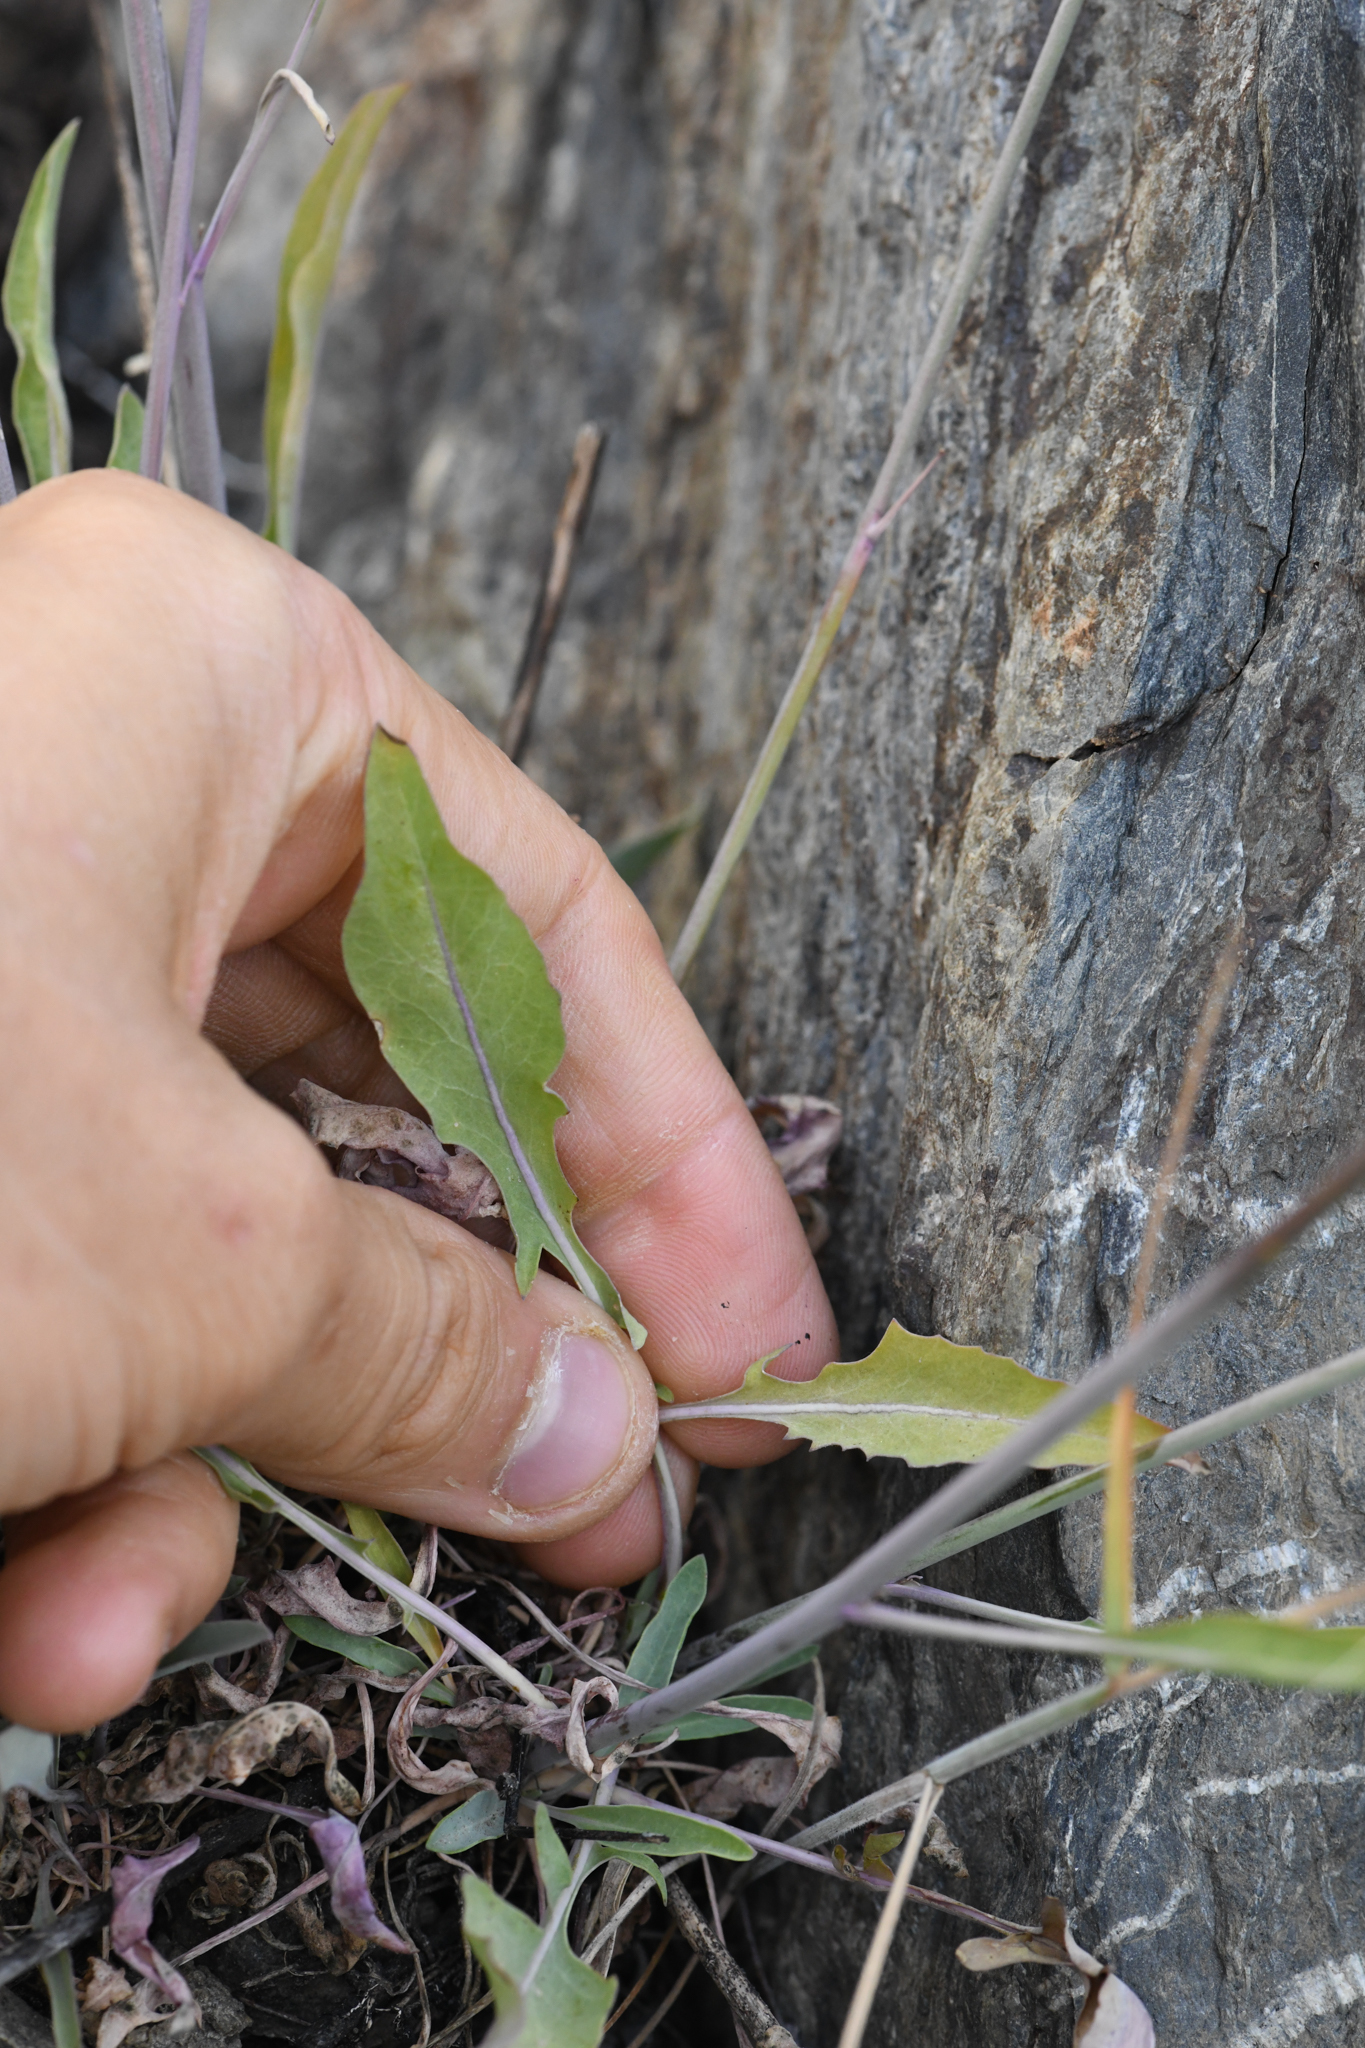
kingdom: Plantae
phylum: Tracheophyta
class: Magnoliopsida
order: Brassicales
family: Brassicaceae
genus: Streptanthus
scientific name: Streptanthus major
